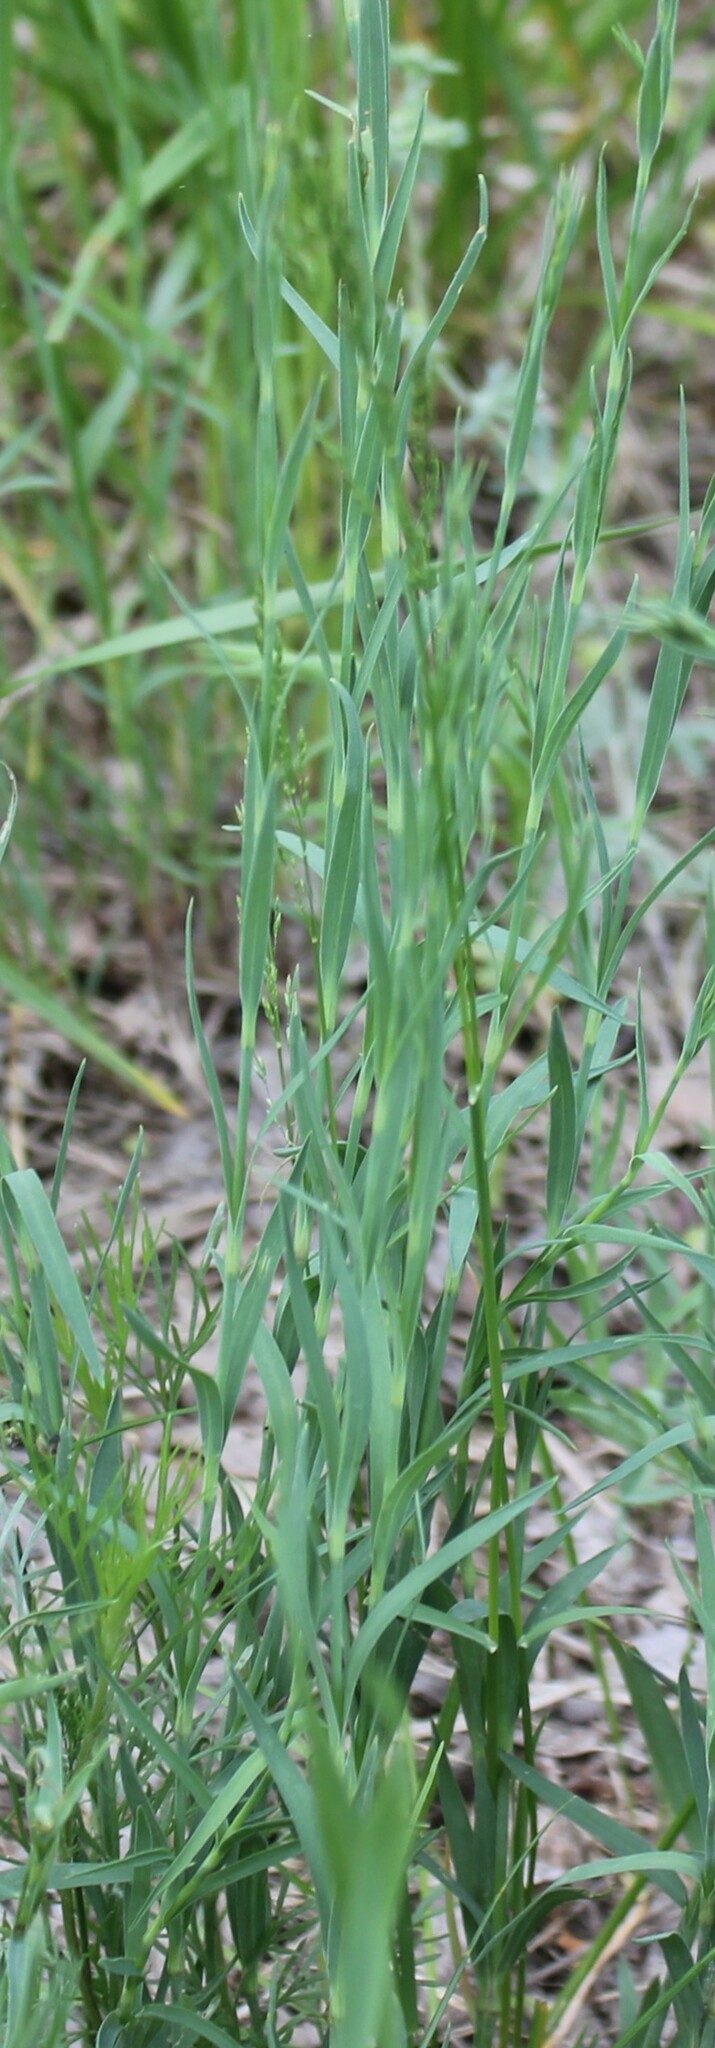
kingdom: Plantae
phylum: Tracheophyta
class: Magnoliopsida
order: Caryophyllales
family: Caryophyllaceae
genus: Dianthus
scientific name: Dianthus chinensis
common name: Rainbow pink
